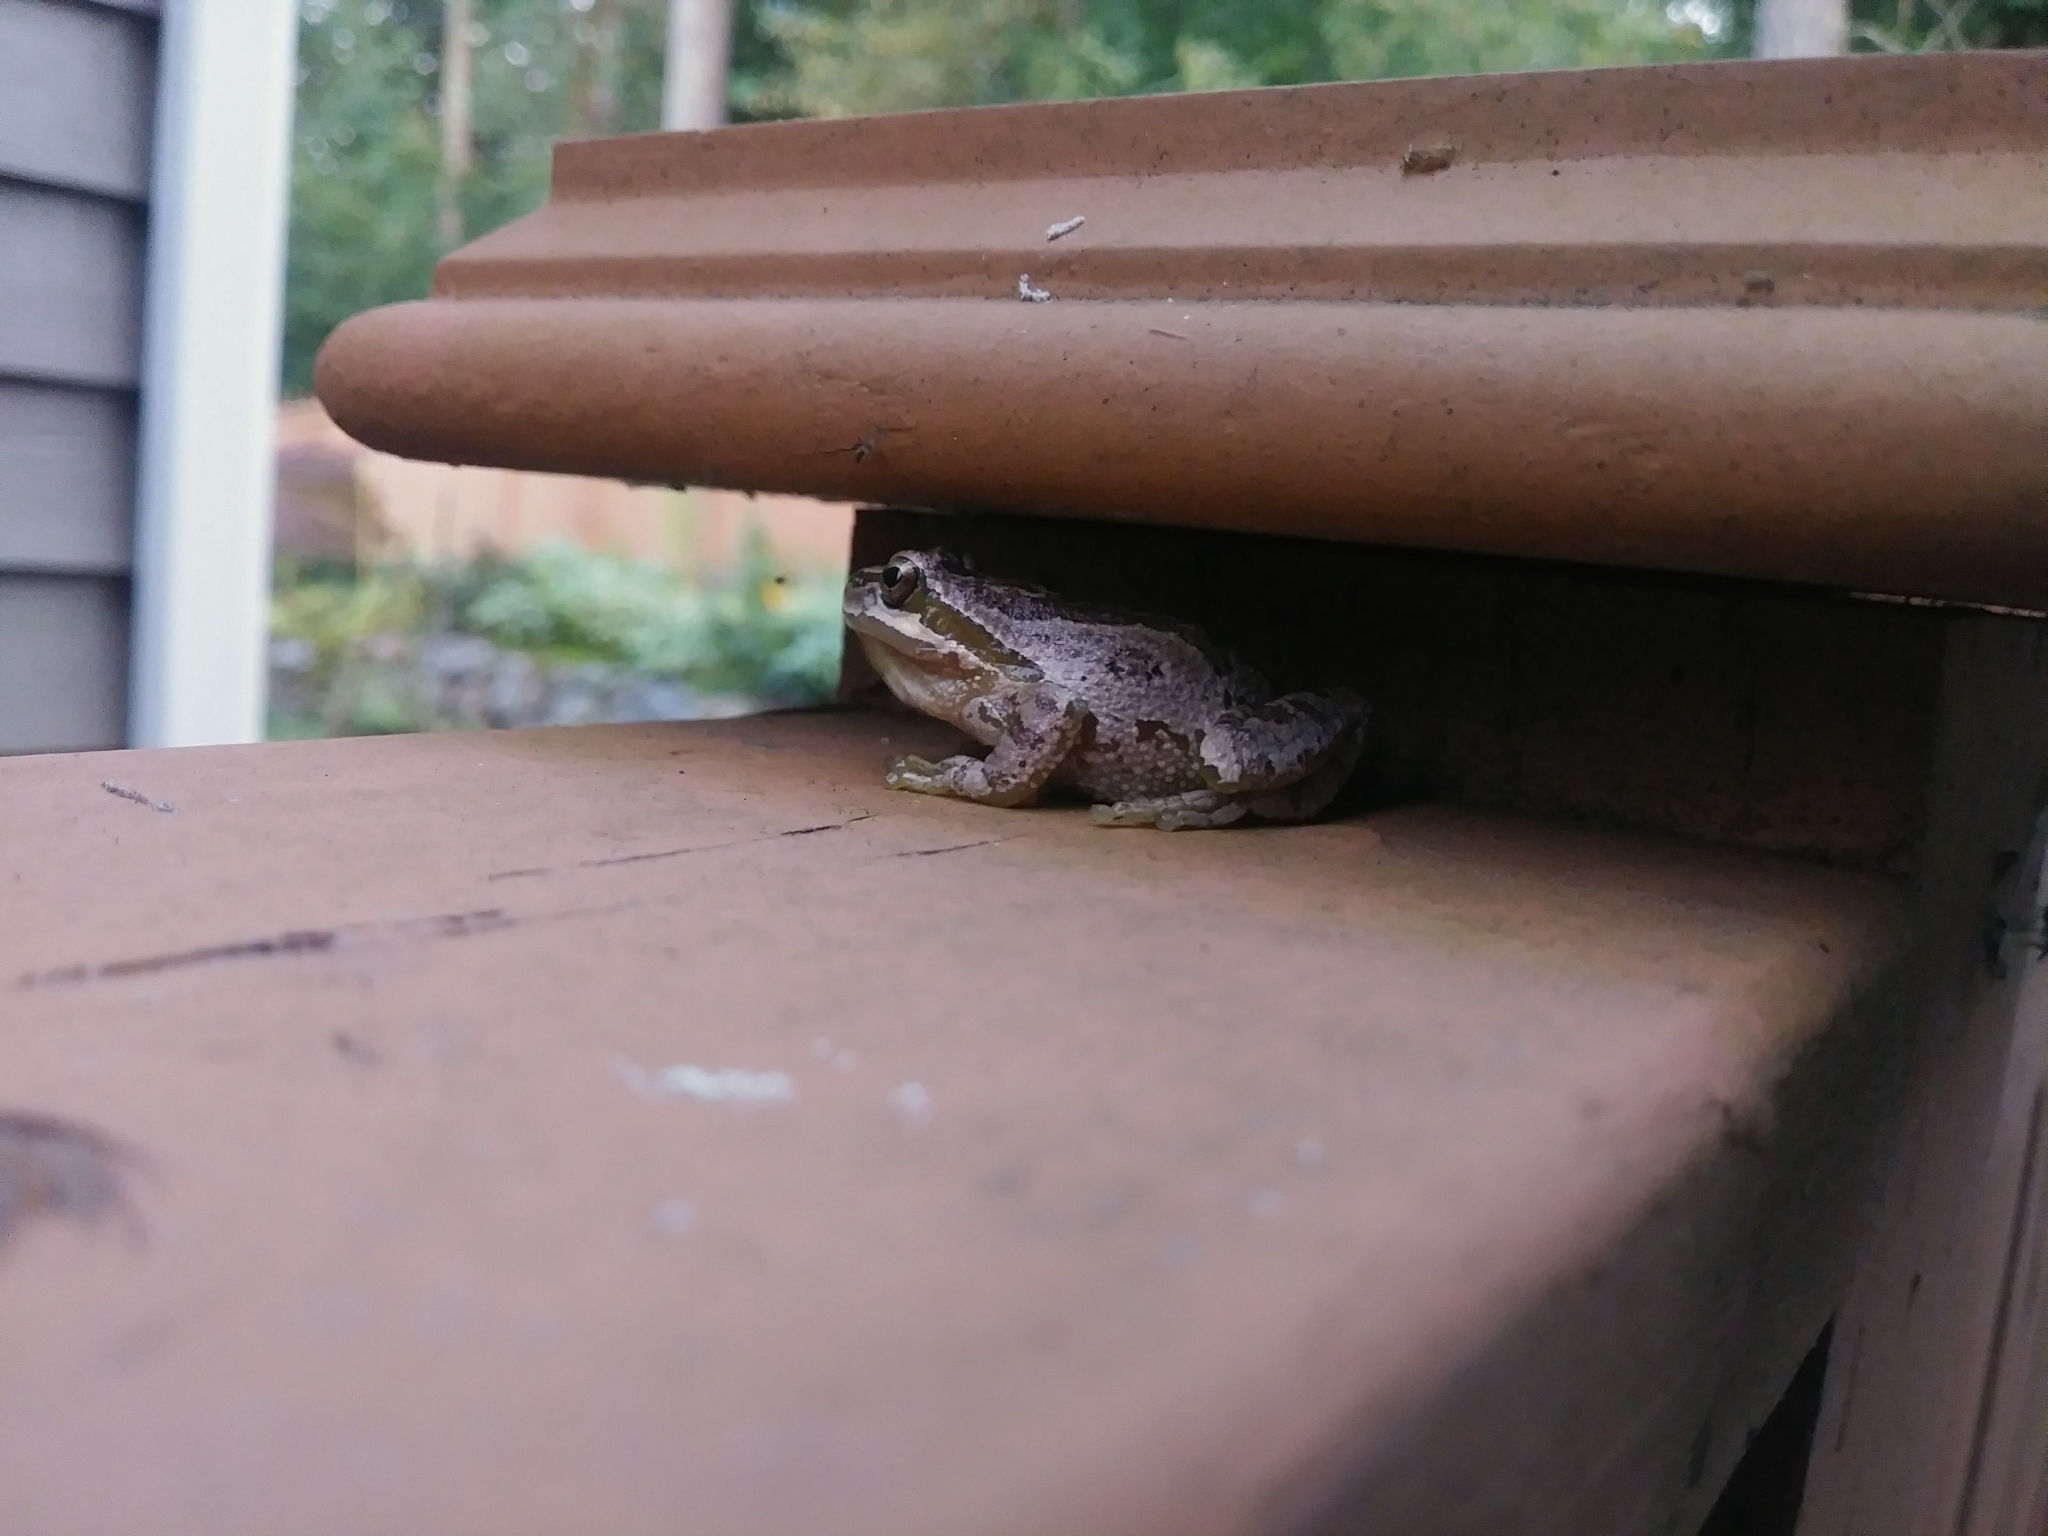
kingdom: Animalia
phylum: Chordata
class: Amphibia
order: Anura
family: Hylidae
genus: Pseudacris
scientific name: Pseudacris regilla
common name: Pacific chorus frog
